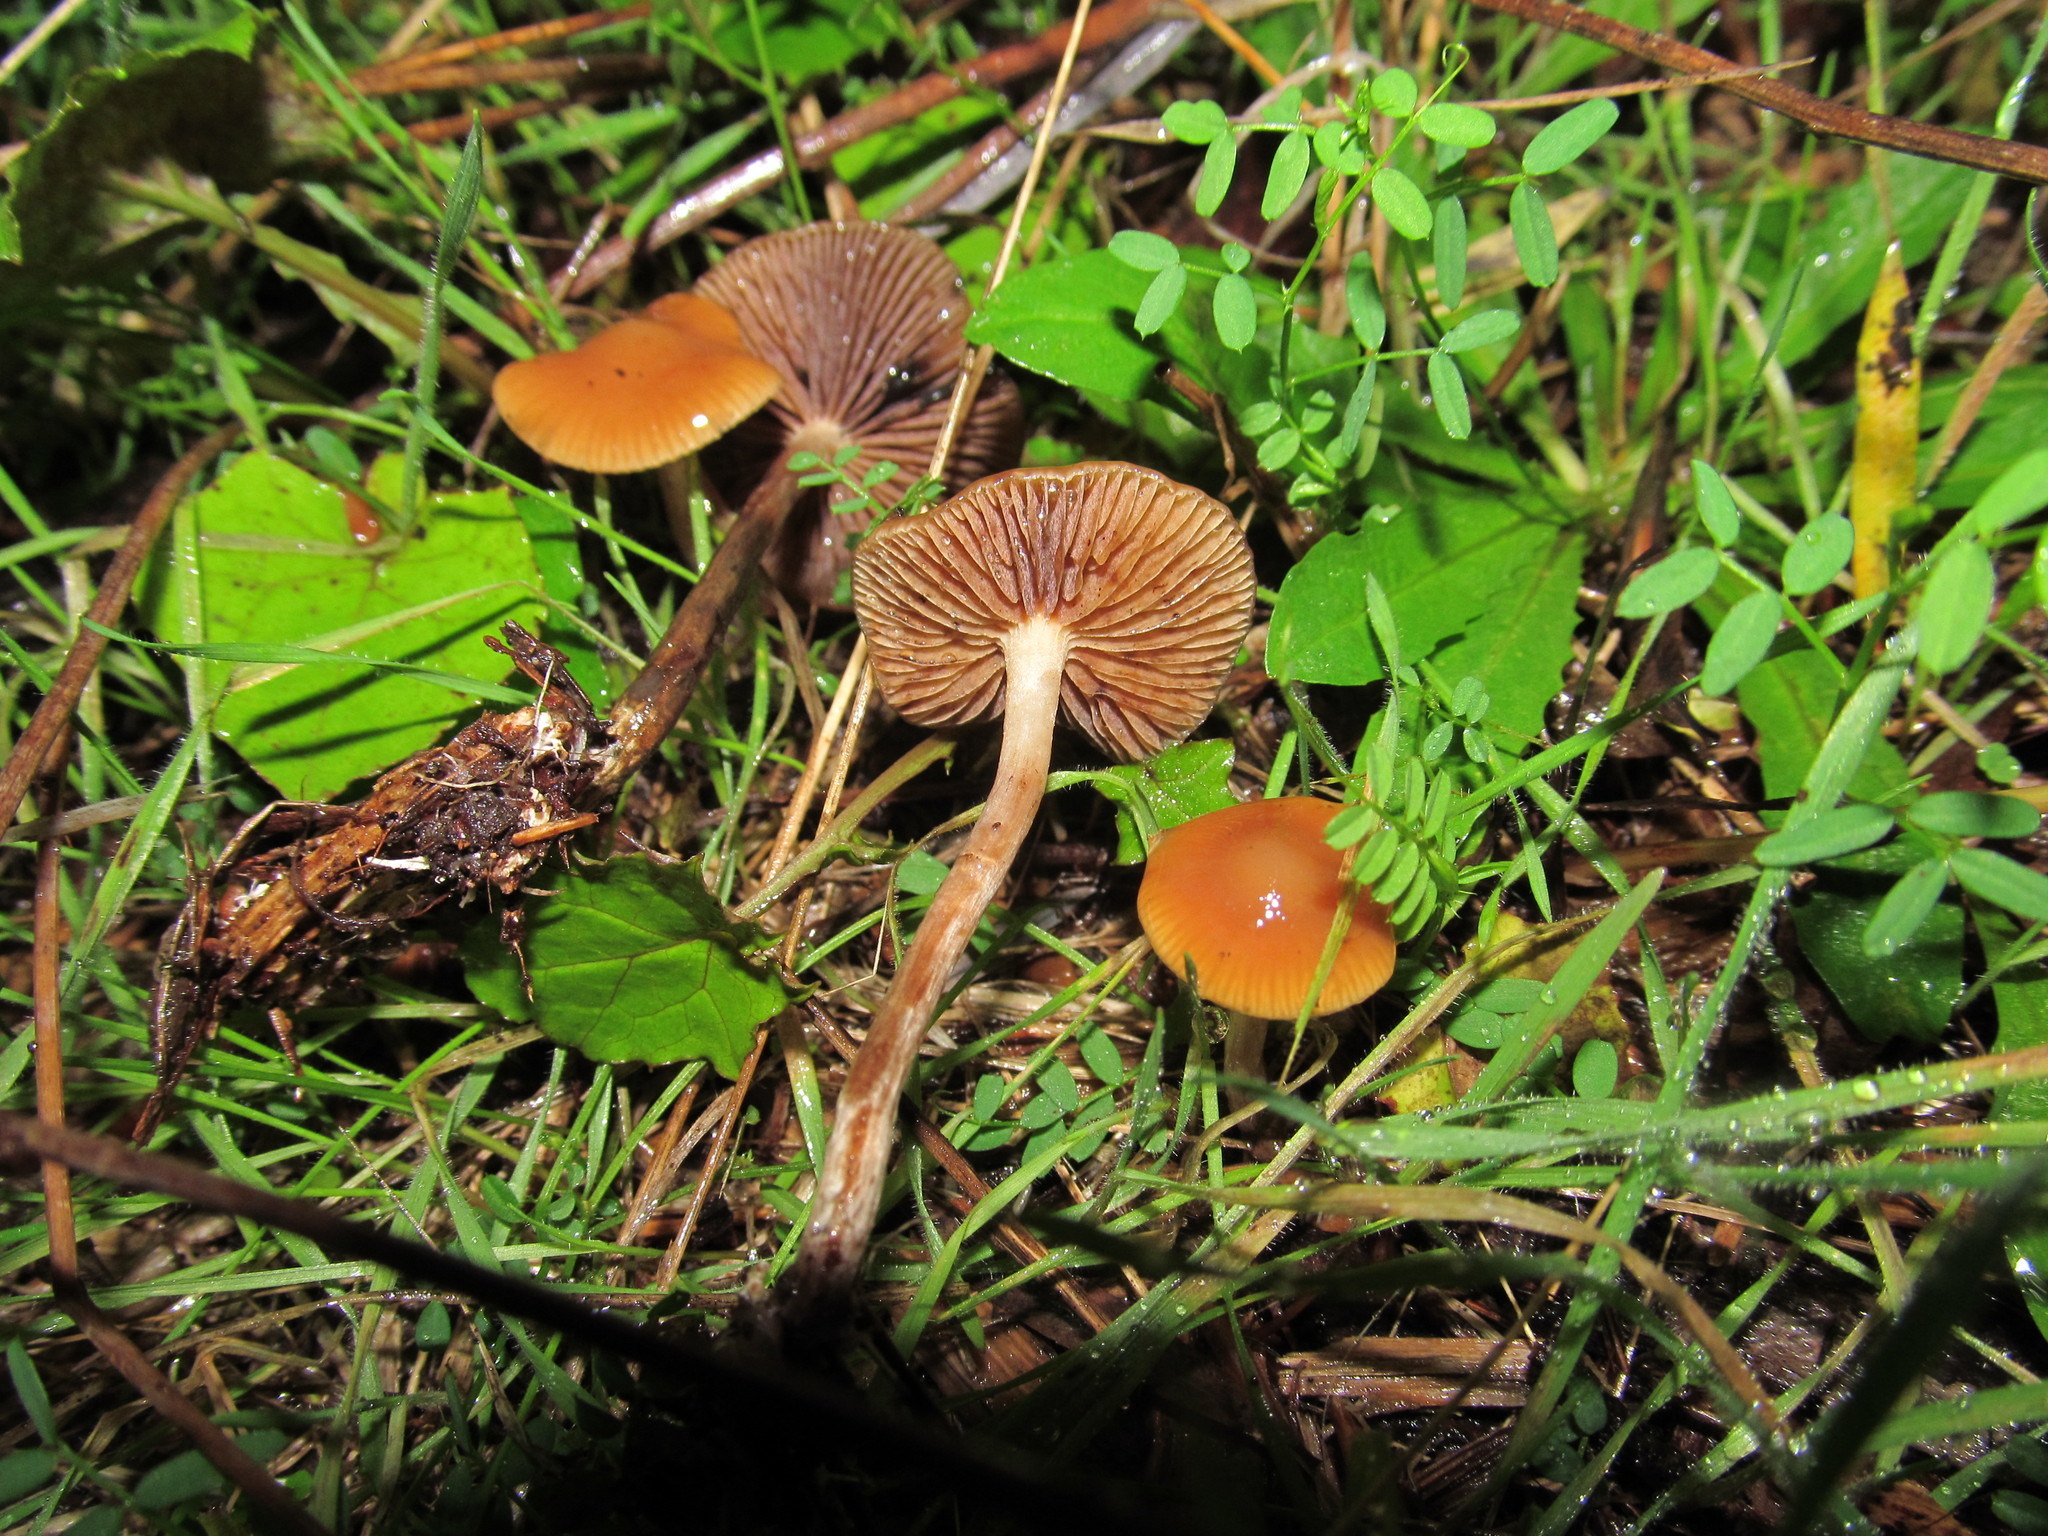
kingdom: Fungi
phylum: Basidiomycota
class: Agaricomycetes
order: Agaricales
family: Hymenogastraceae
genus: Psilocybe
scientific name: Psilocybe cyanescens
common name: Blueleg brownie
